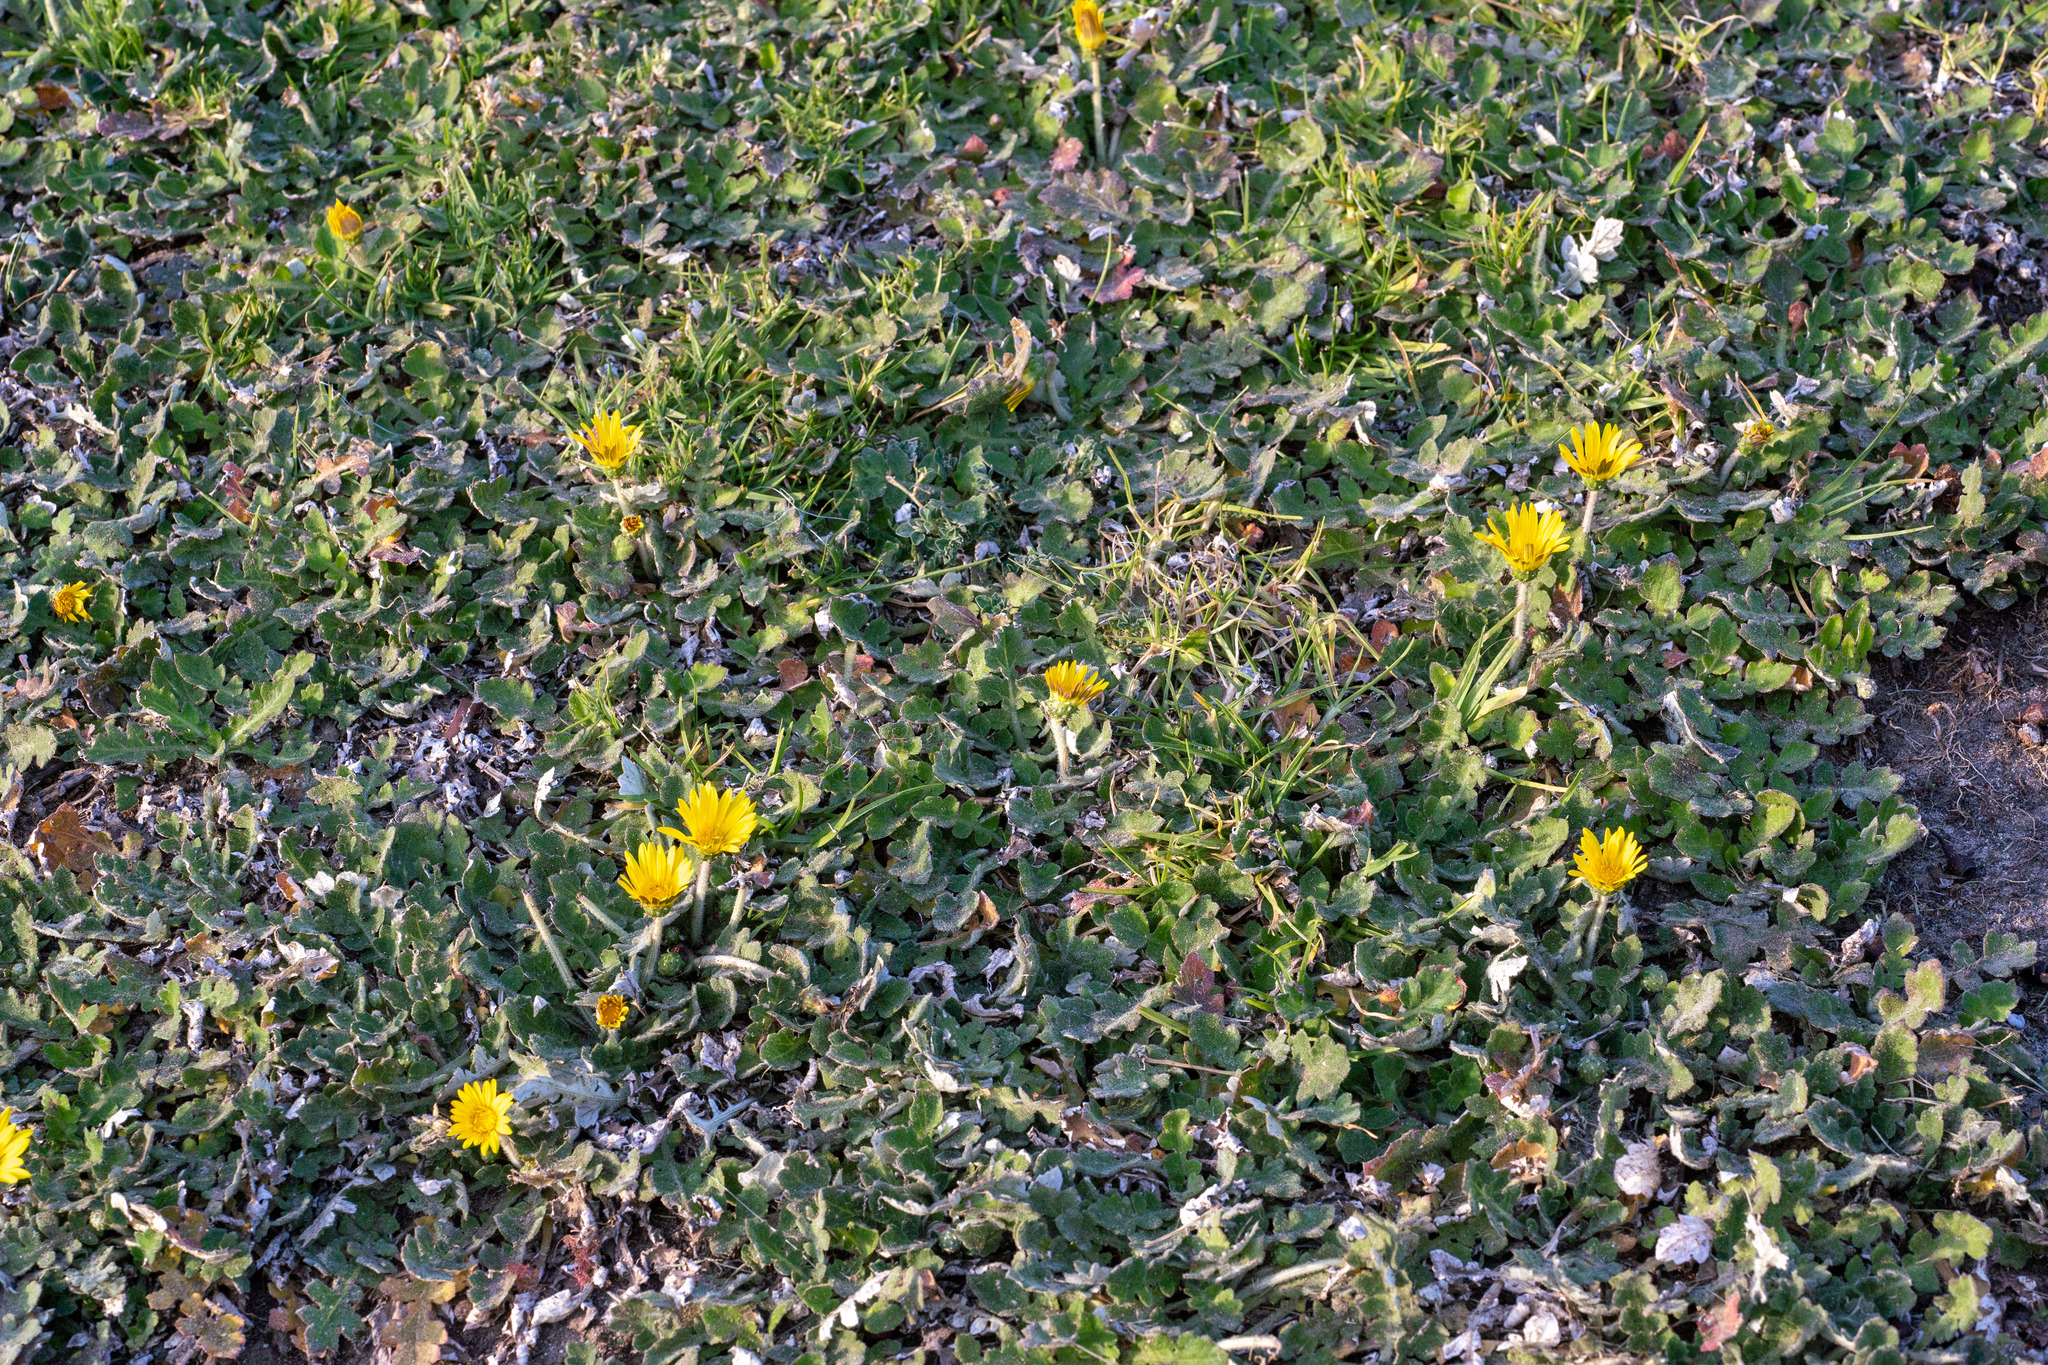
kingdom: Plantae
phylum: Tracheophyta
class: Magnoliopsida
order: Asterales
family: Asteraceae
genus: Arctotheca
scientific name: Arctotheca prostrata
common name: Capeweed
